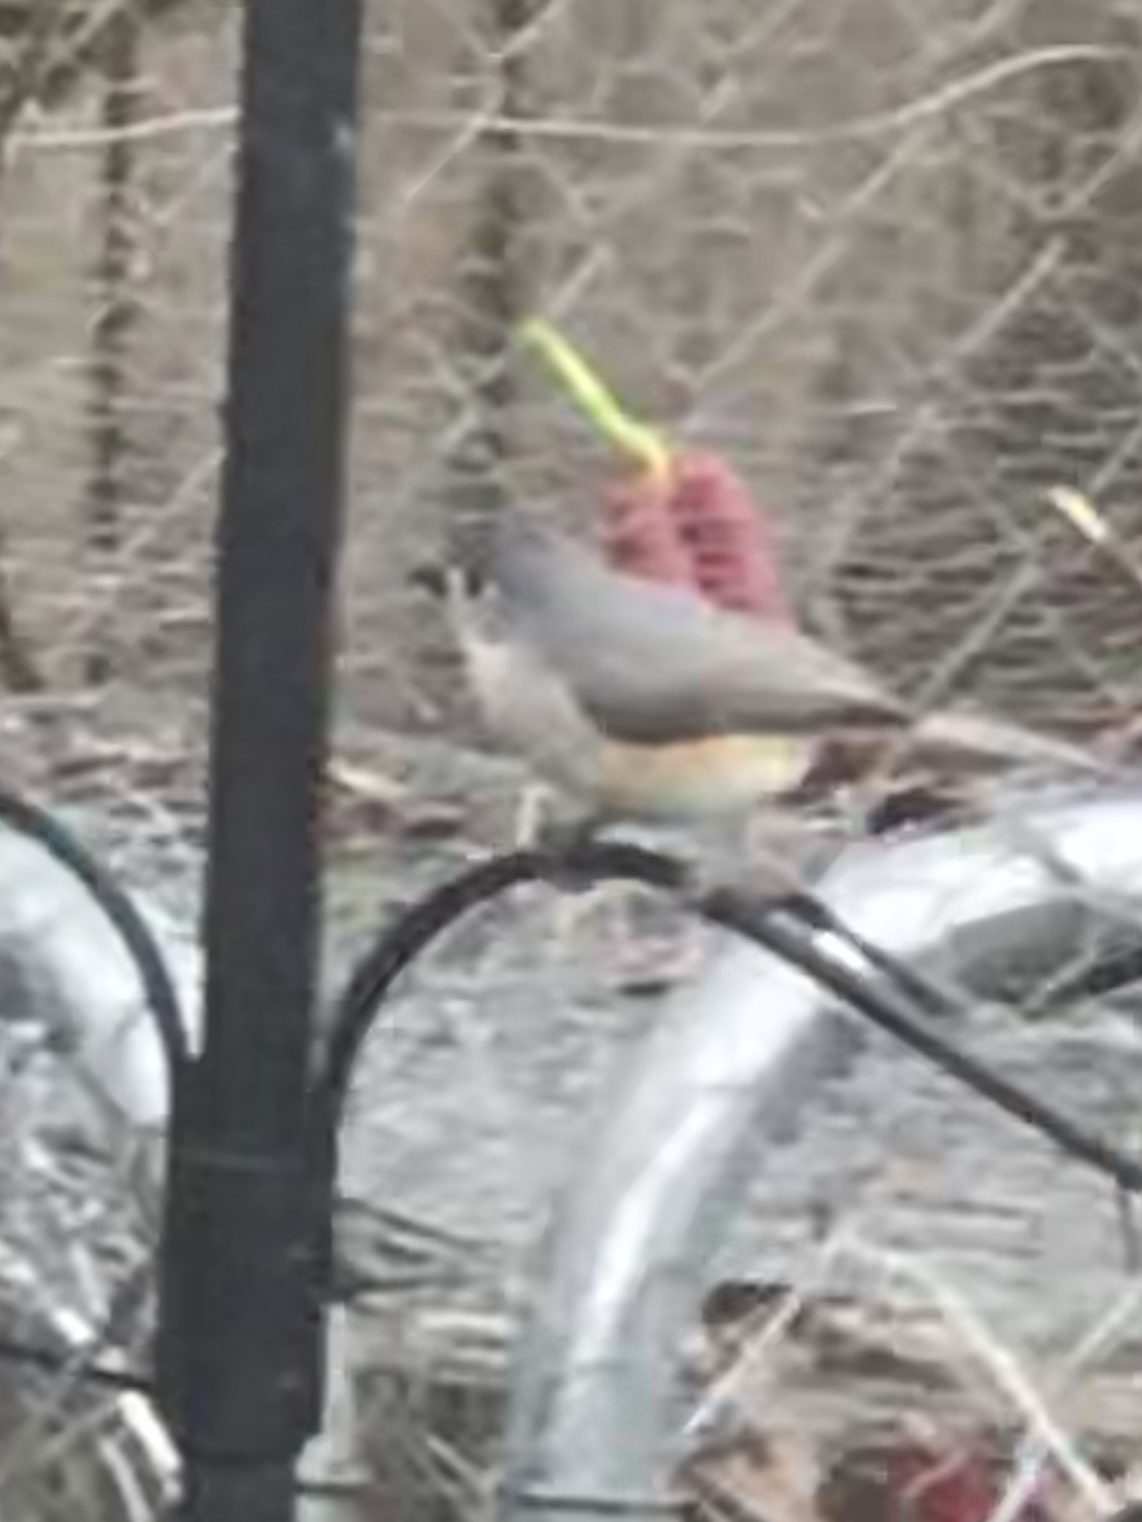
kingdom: Animalia
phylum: Chordata
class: Aves
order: Passeriformes
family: Paridae
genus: Baeolophus
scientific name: Baeolophus bicolor
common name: Tufted titmouse
